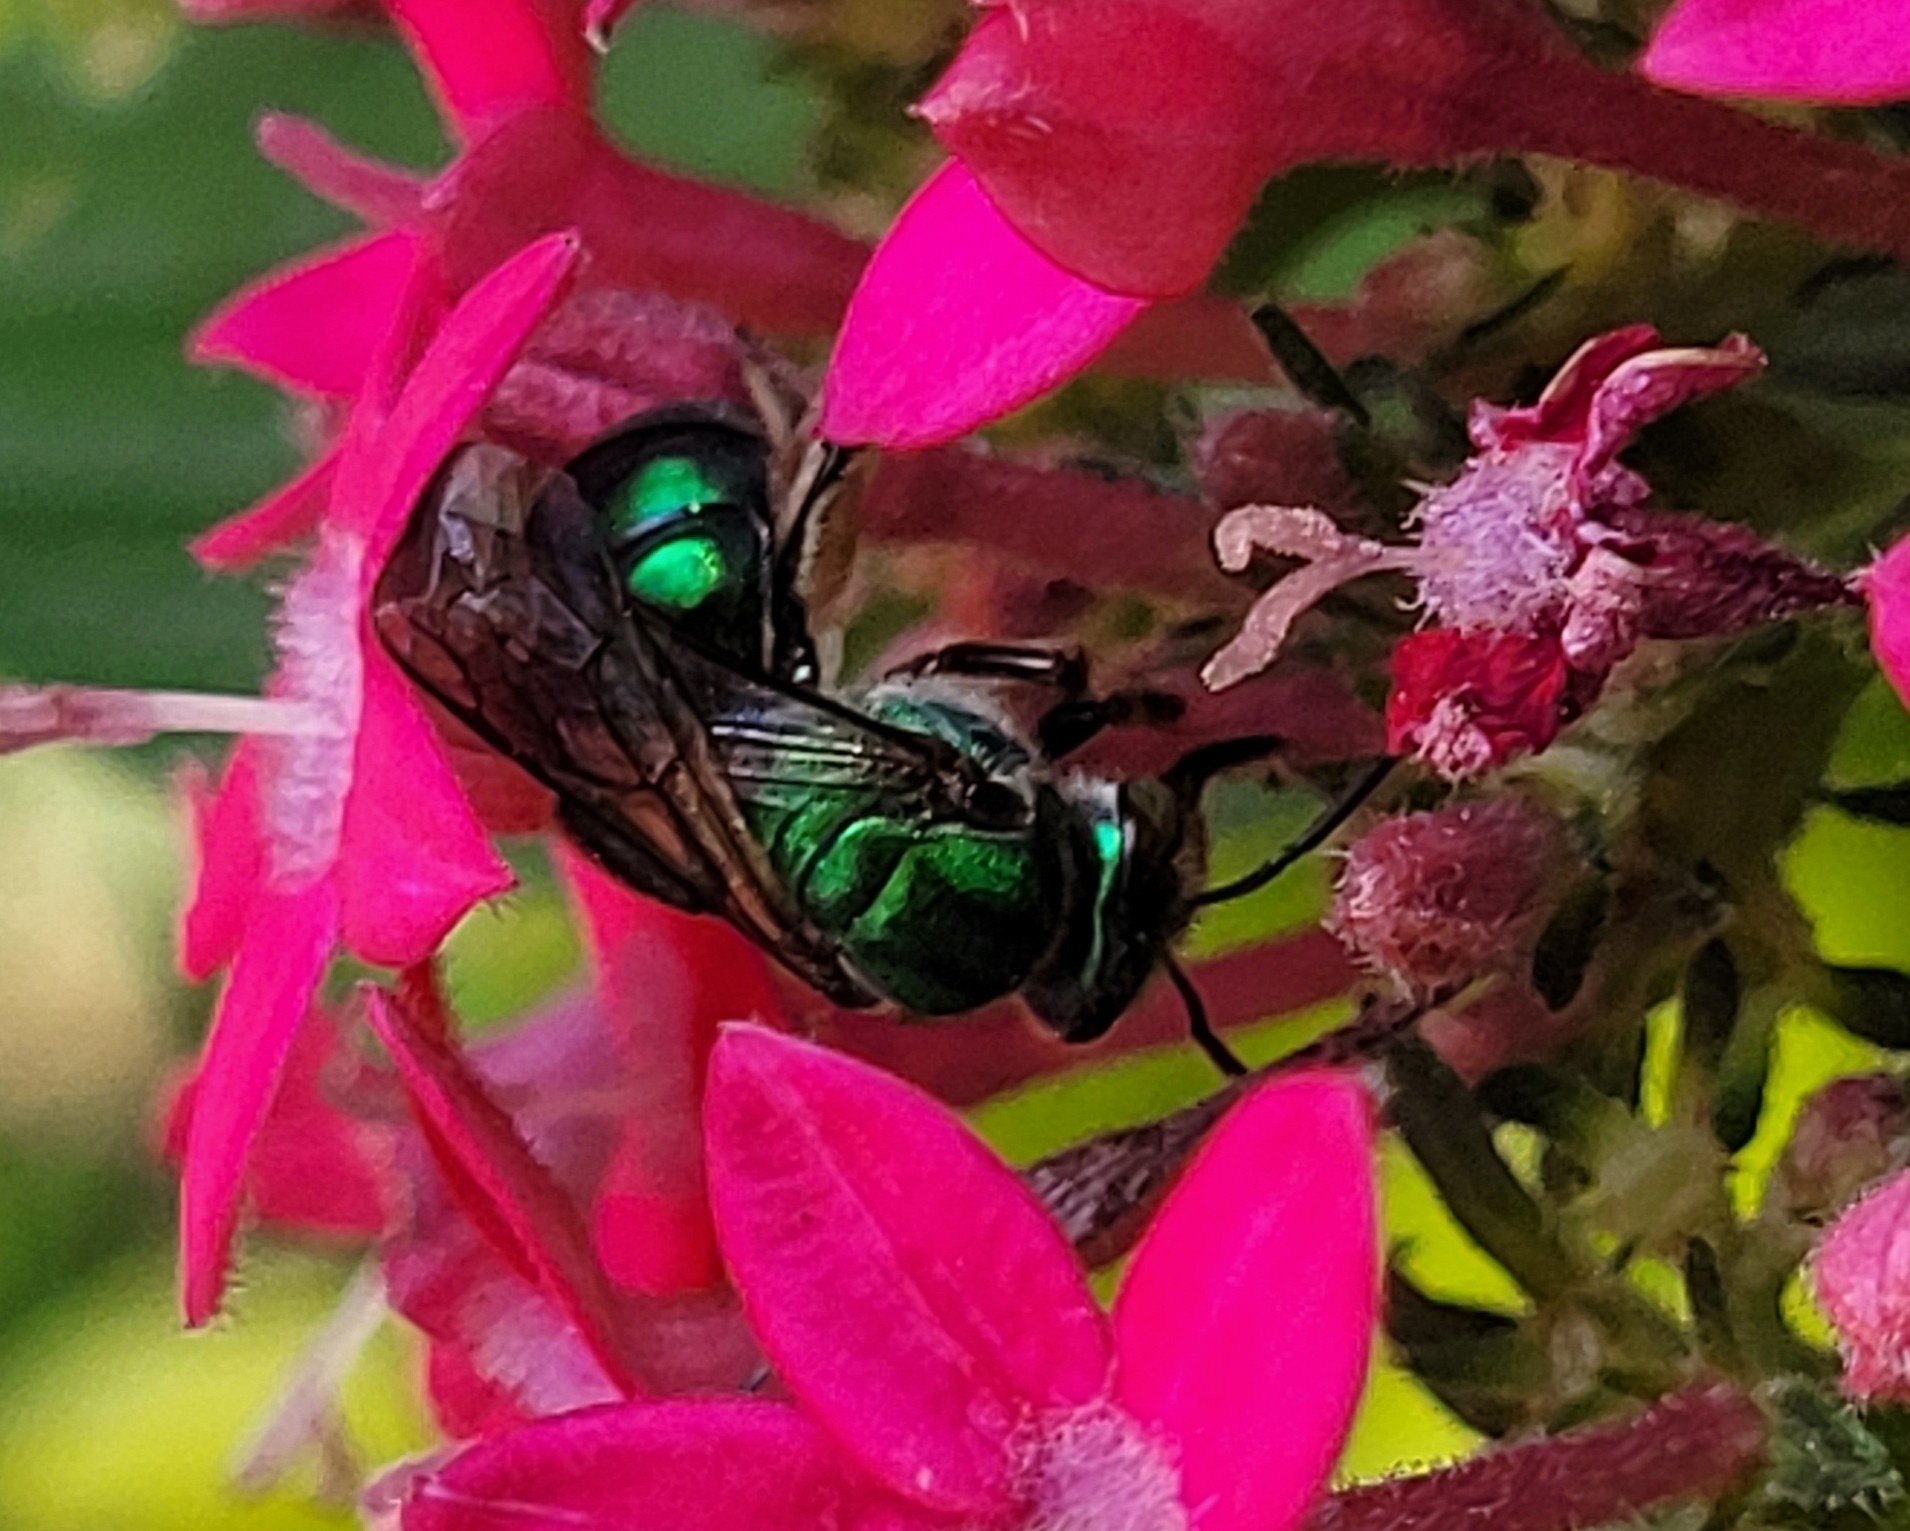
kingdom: Animalia
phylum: Arthropoda
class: Insecta
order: Hymenoptera
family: Halictidae
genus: Pseudaugochlora
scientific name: Pseudaugochlora graminea
